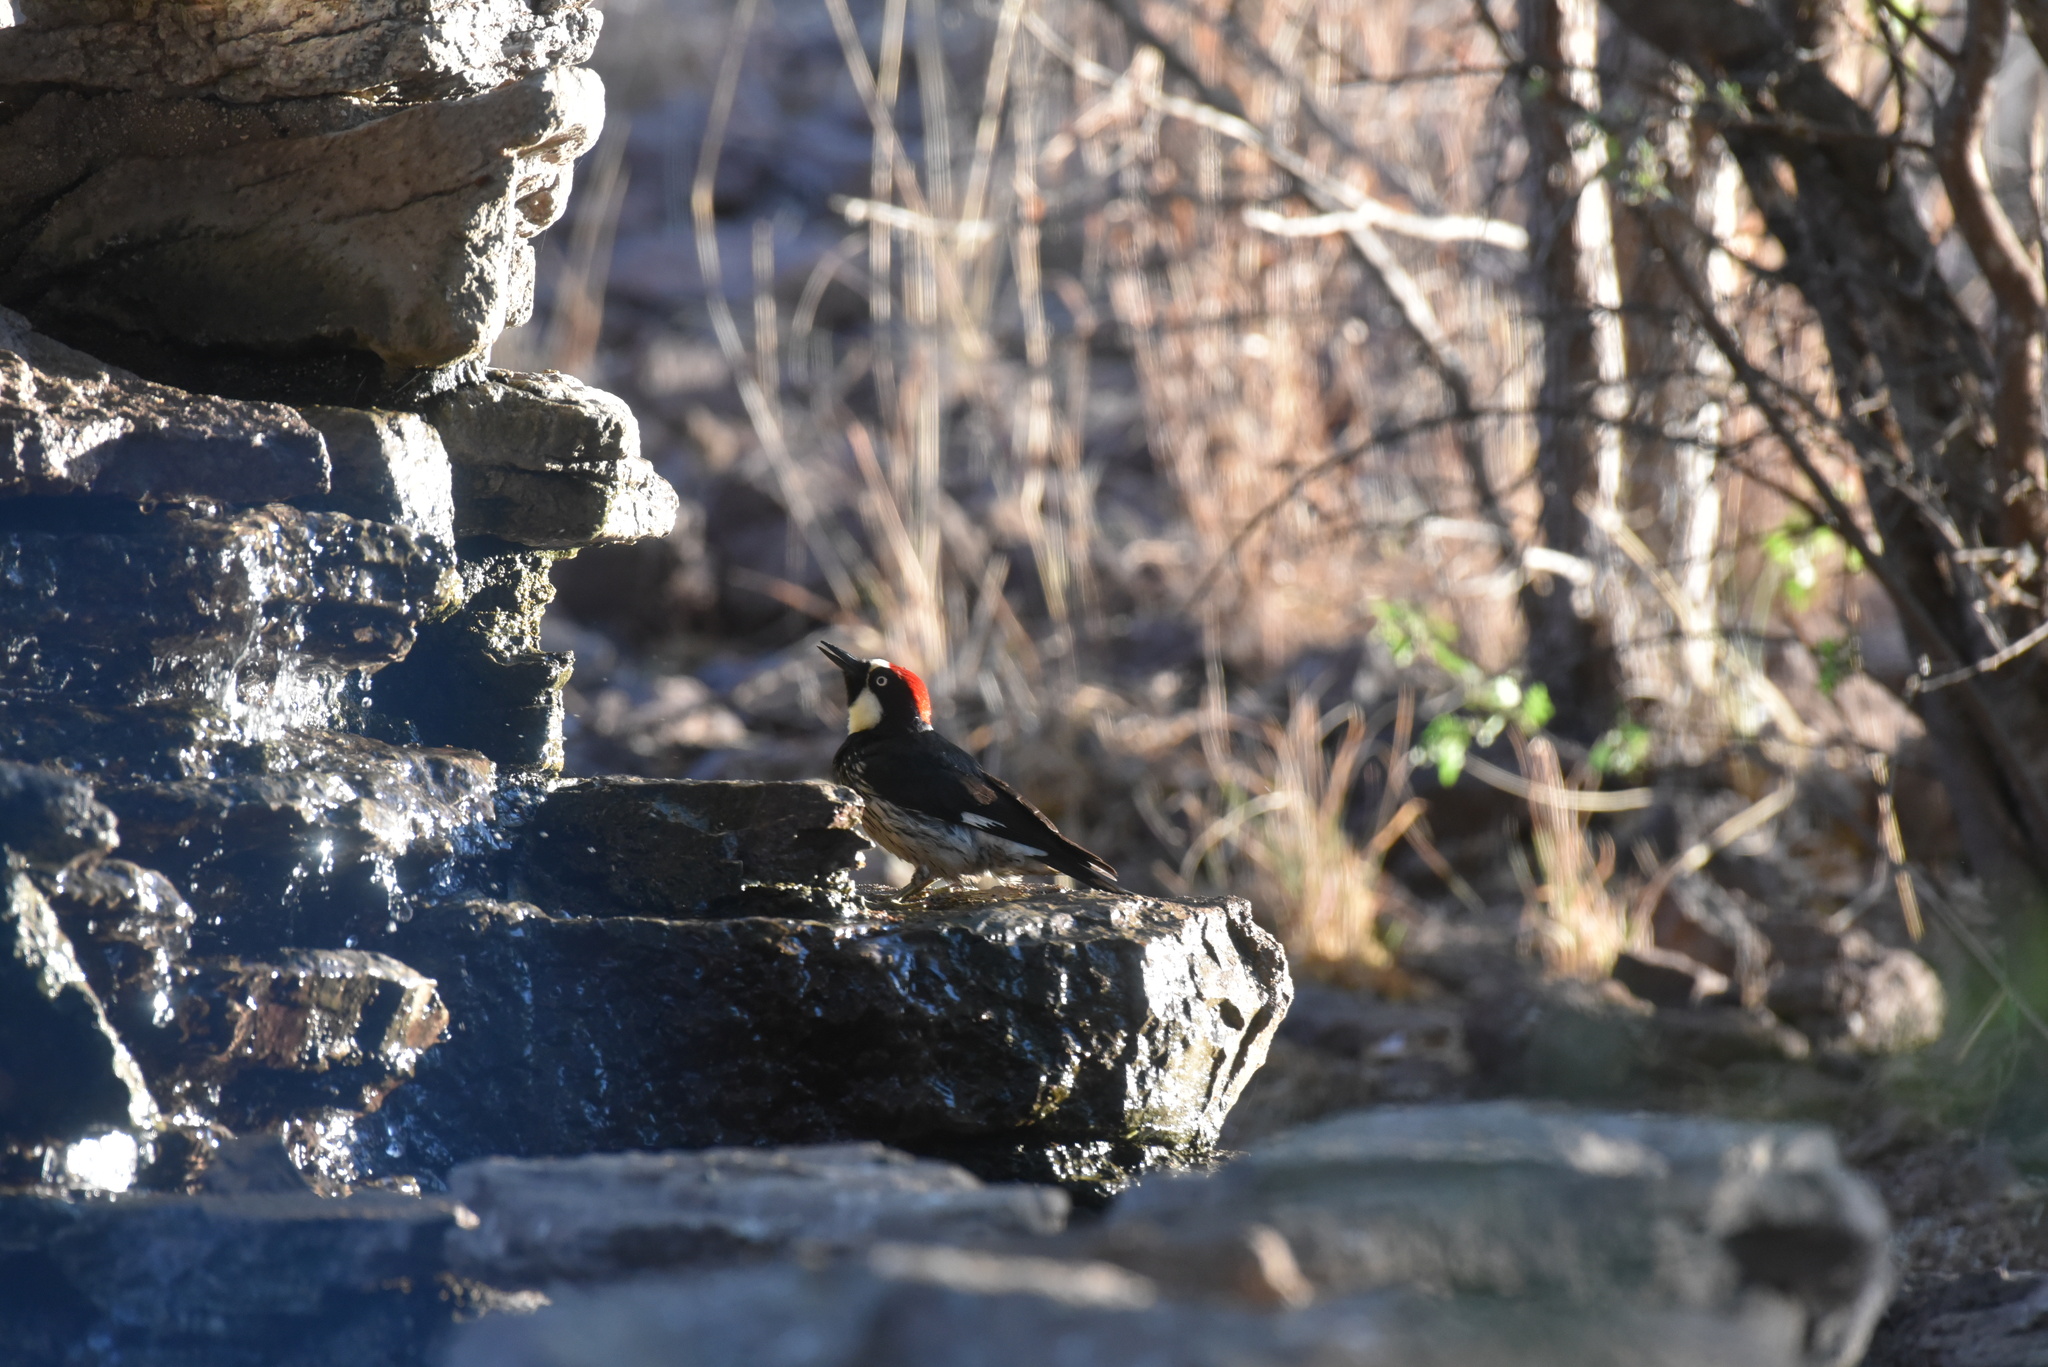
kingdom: Animalia
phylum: Chordata
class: Aves
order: Piciformes
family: Picidae
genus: Melanerpes
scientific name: Melanerpes formicivorus
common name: Acorn woodpecker
